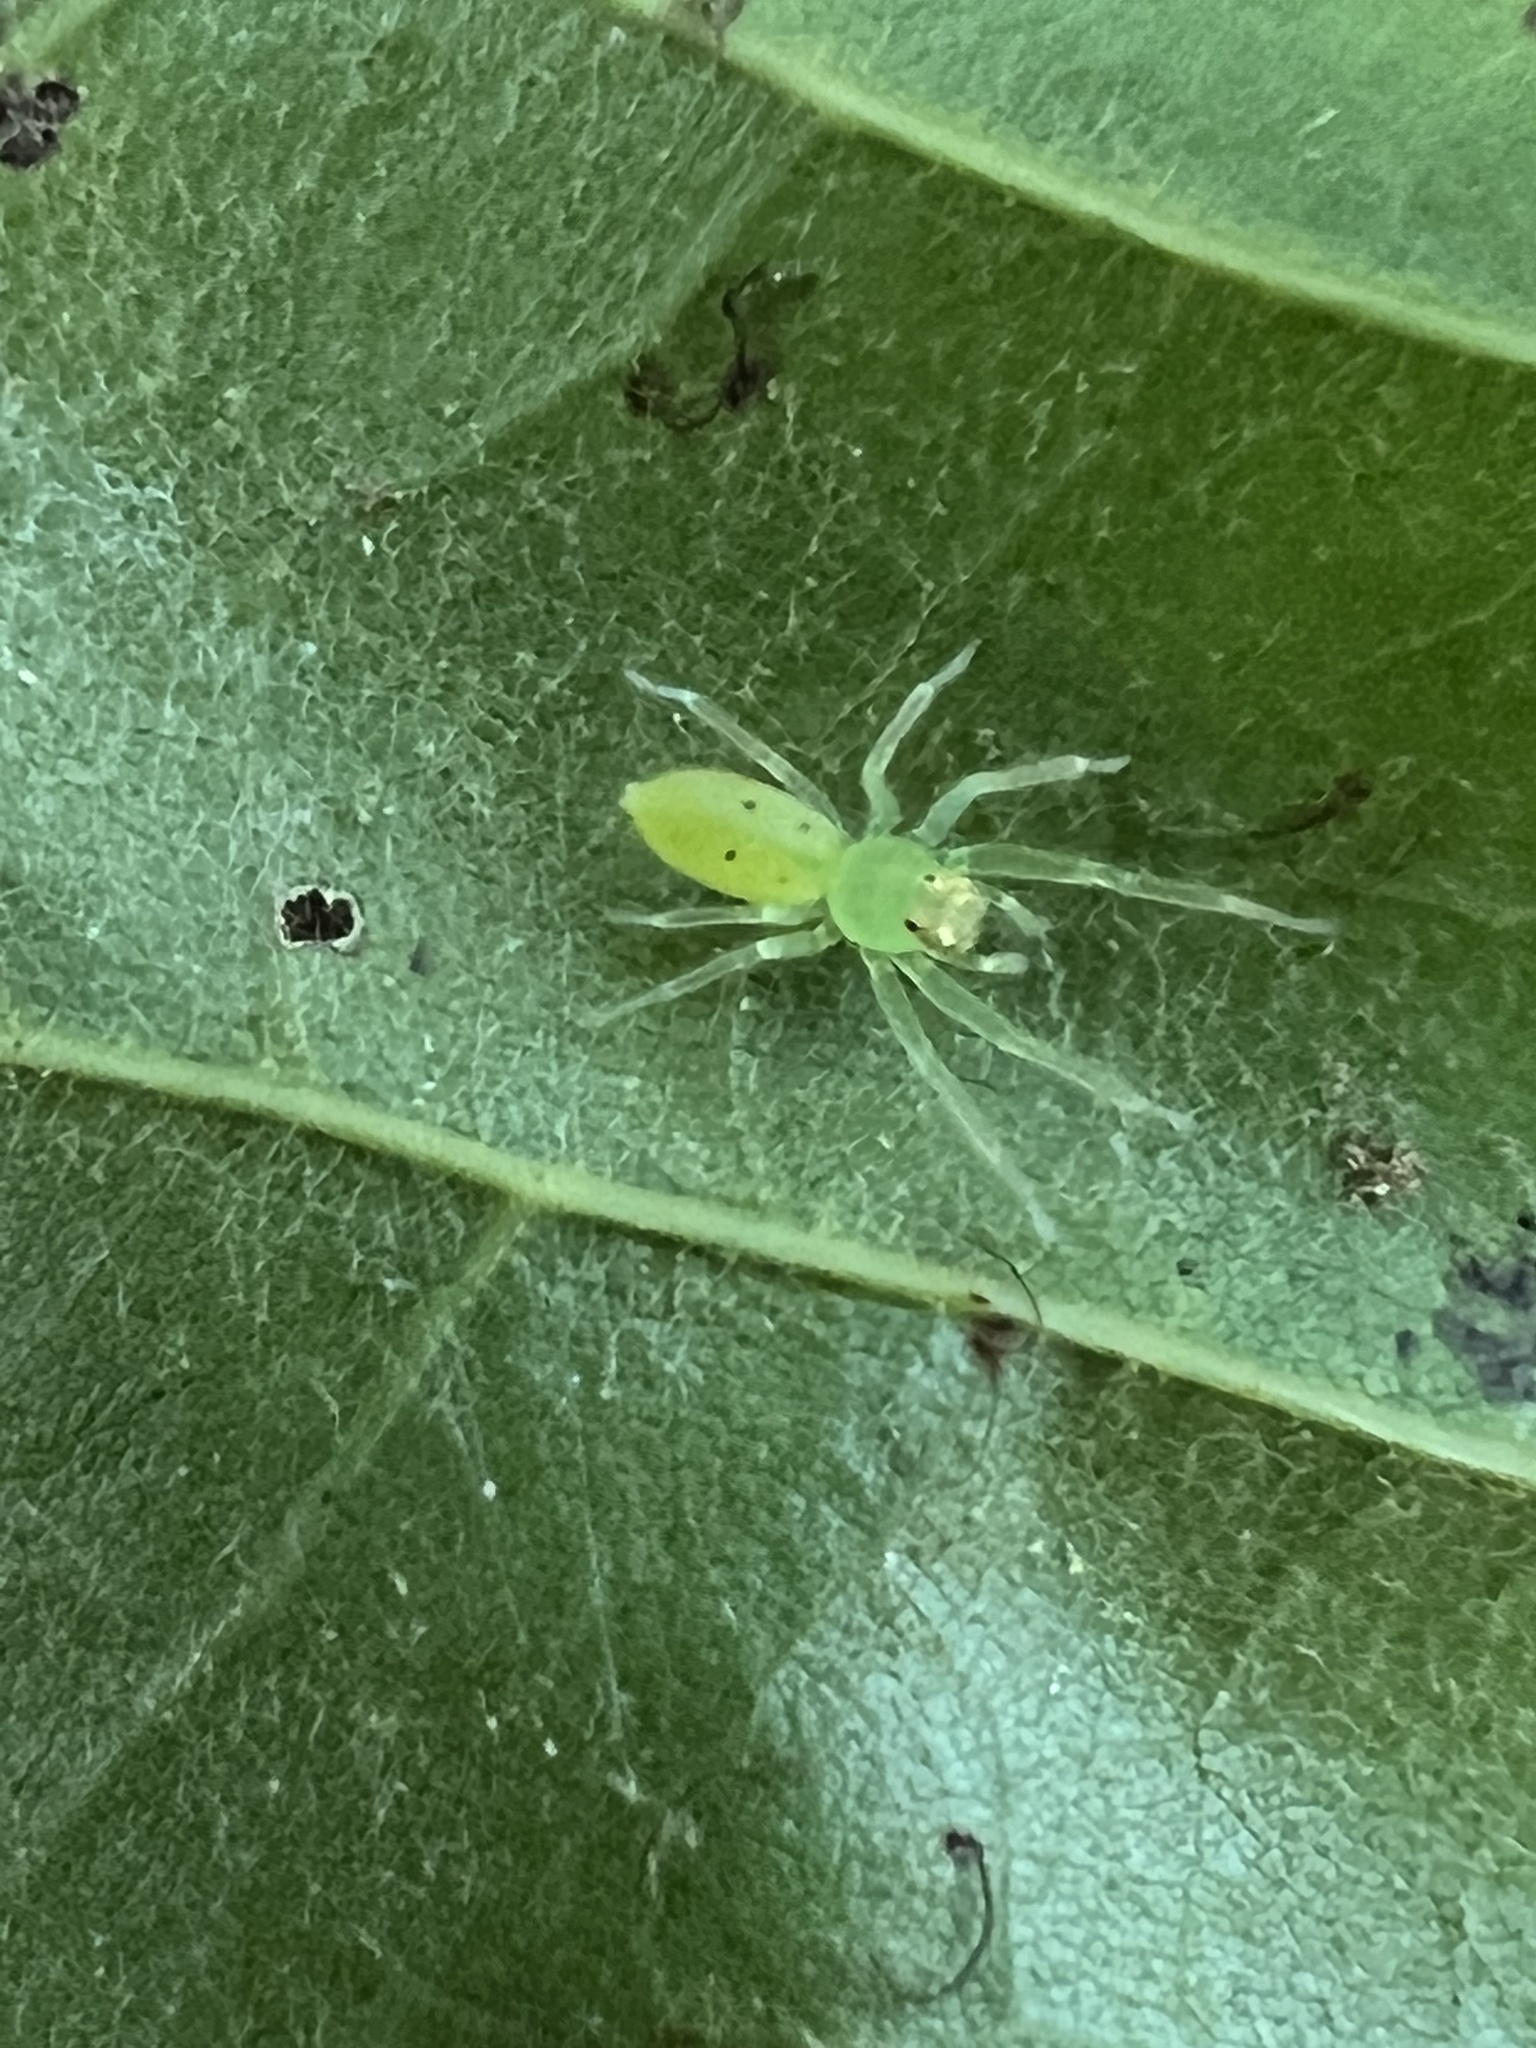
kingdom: Animalia
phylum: Arthropoda
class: Arachnida
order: Araneae
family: Salticidae
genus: Lyssomanes
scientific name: Lyssomanes viridis
